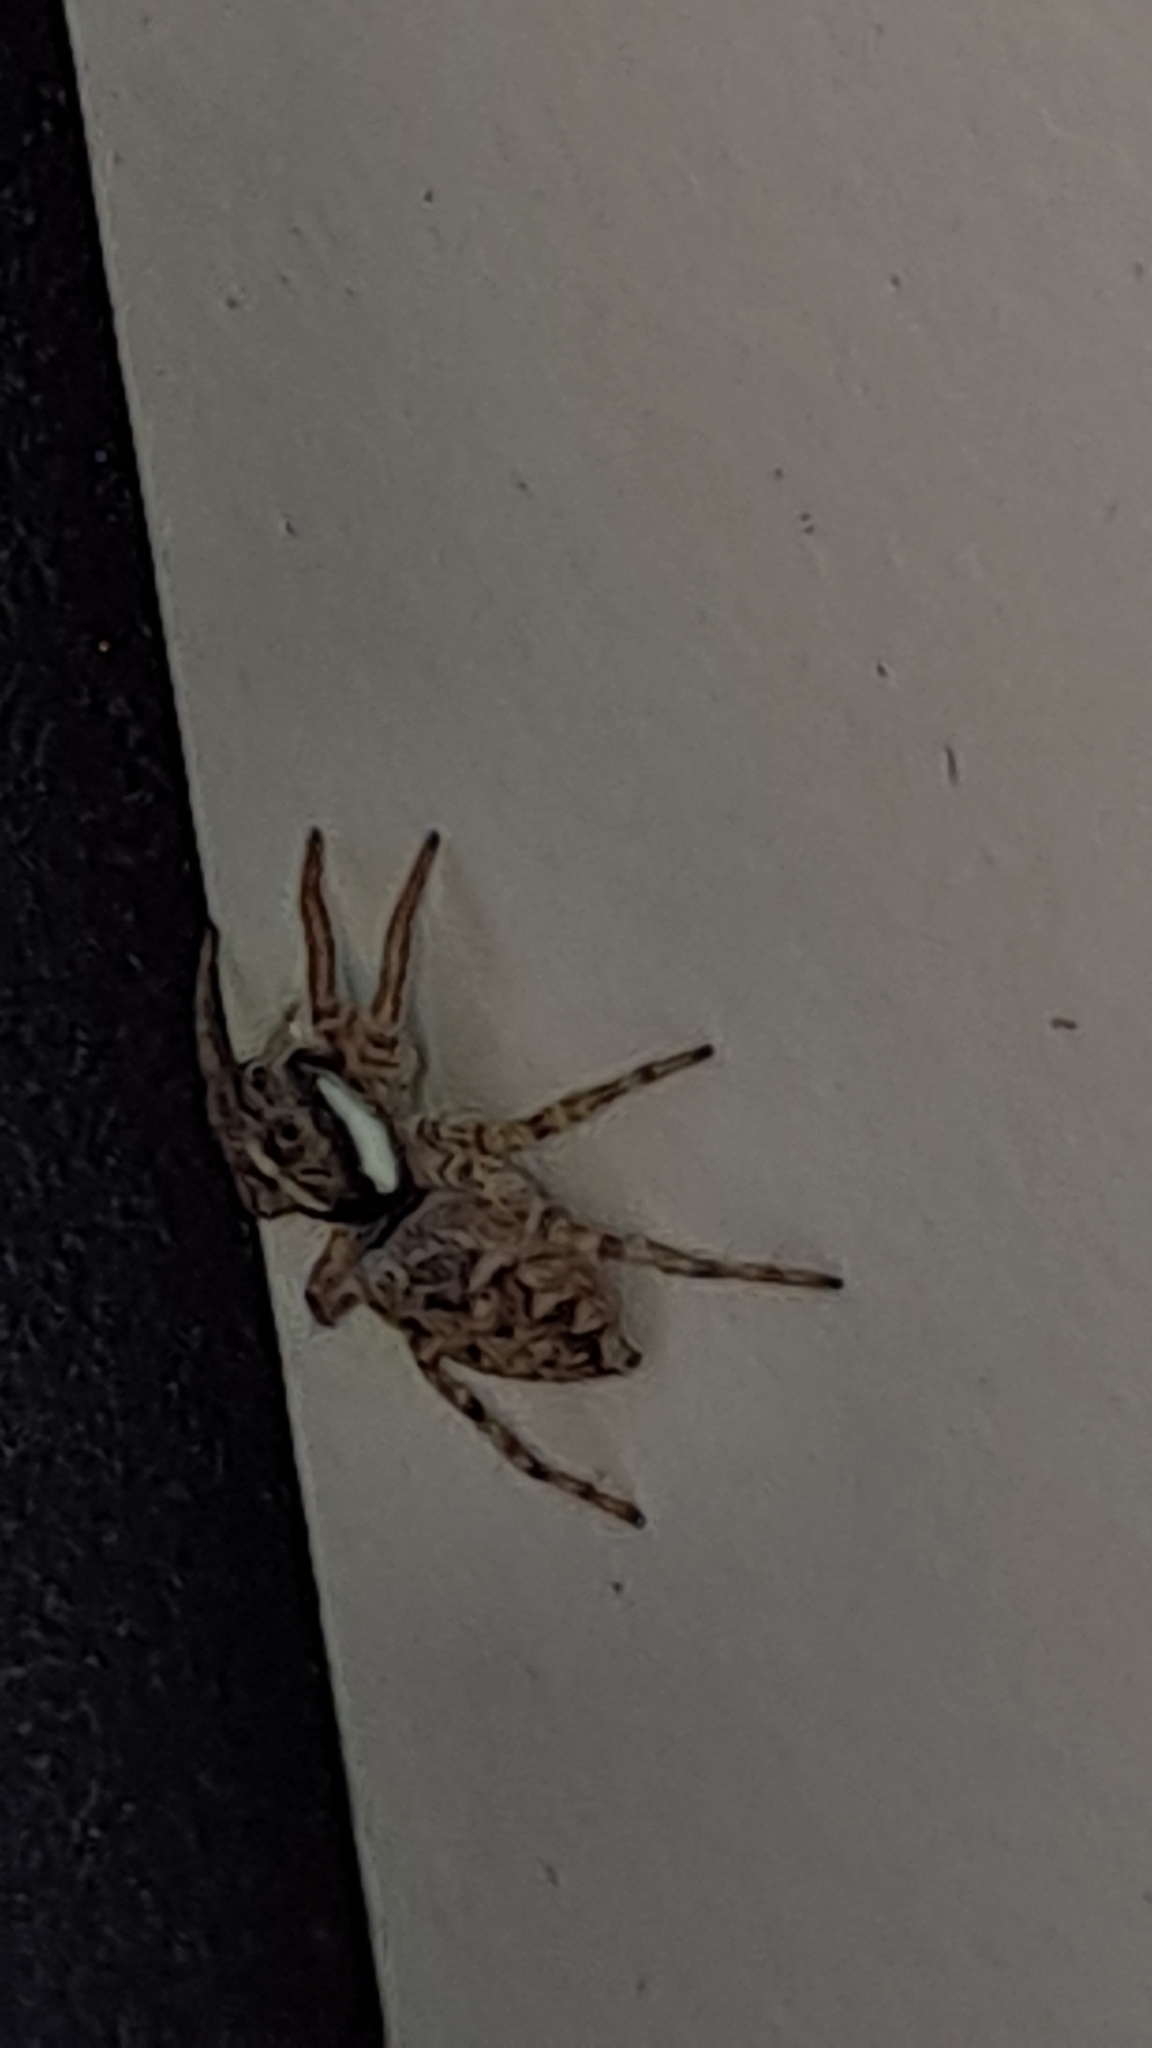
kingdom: Animalia
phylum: Arthropoda
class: Arachnida
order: Araneae
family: Salticidae
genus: Menemerus
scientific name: Menemerus semilimbatus
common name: Jumping spider
